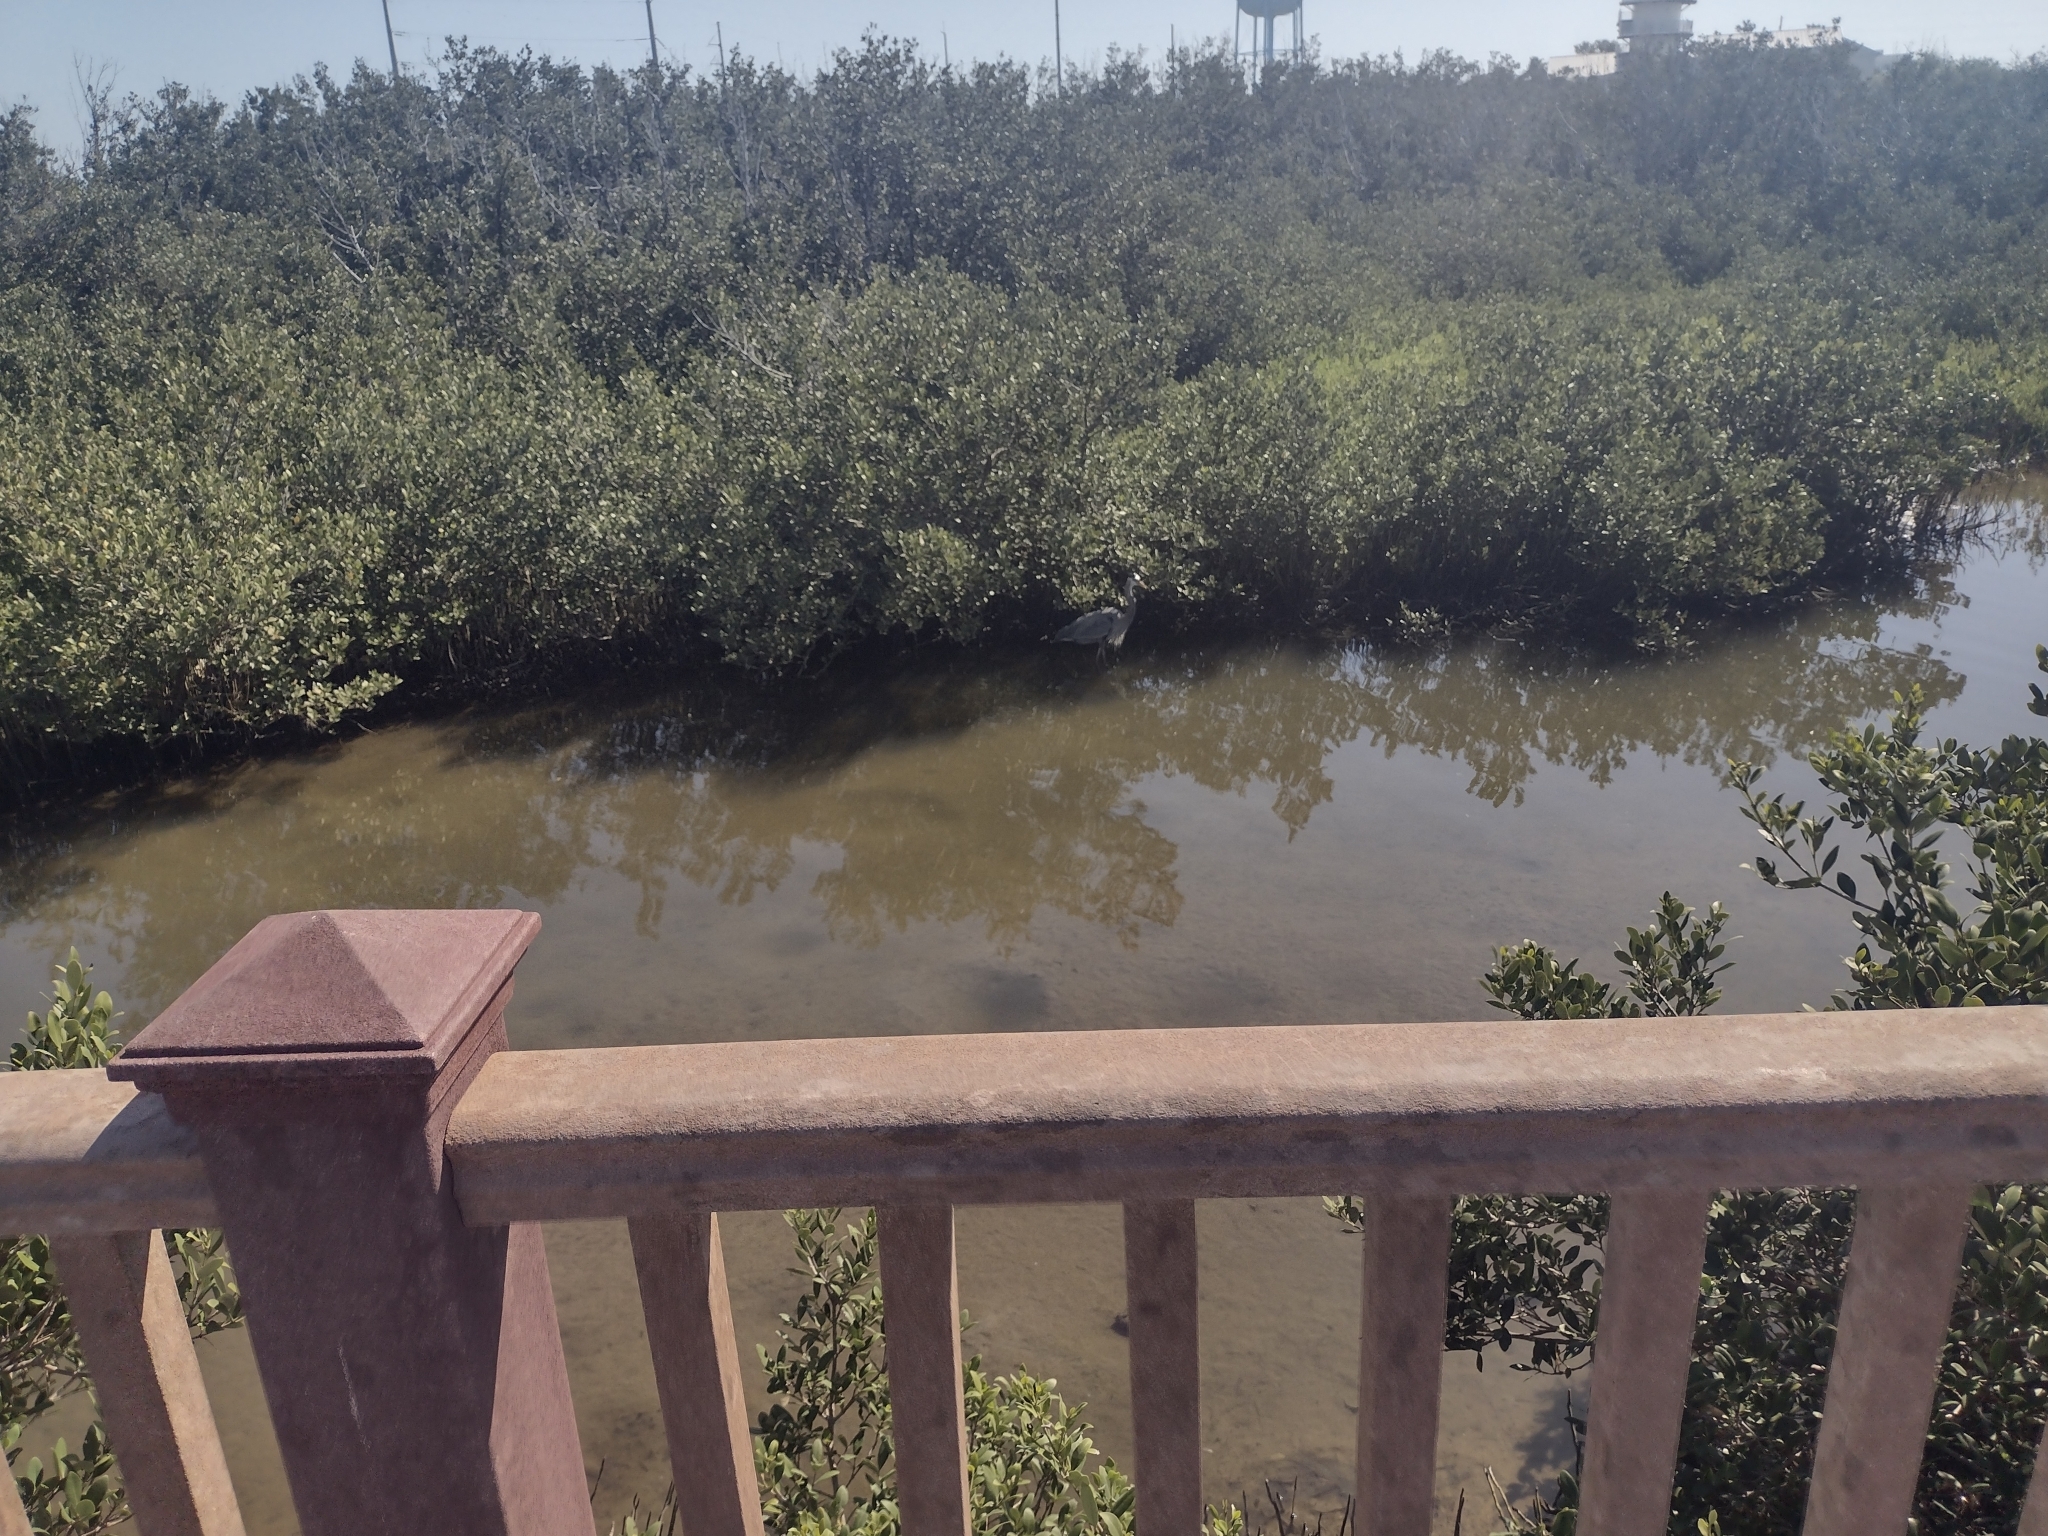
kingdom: Animalia
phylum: Chordata
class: Aves
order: Pelecaniformes
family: Ardeidae
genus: Ardea
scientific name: Ardea herodias
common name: Great blue heron
